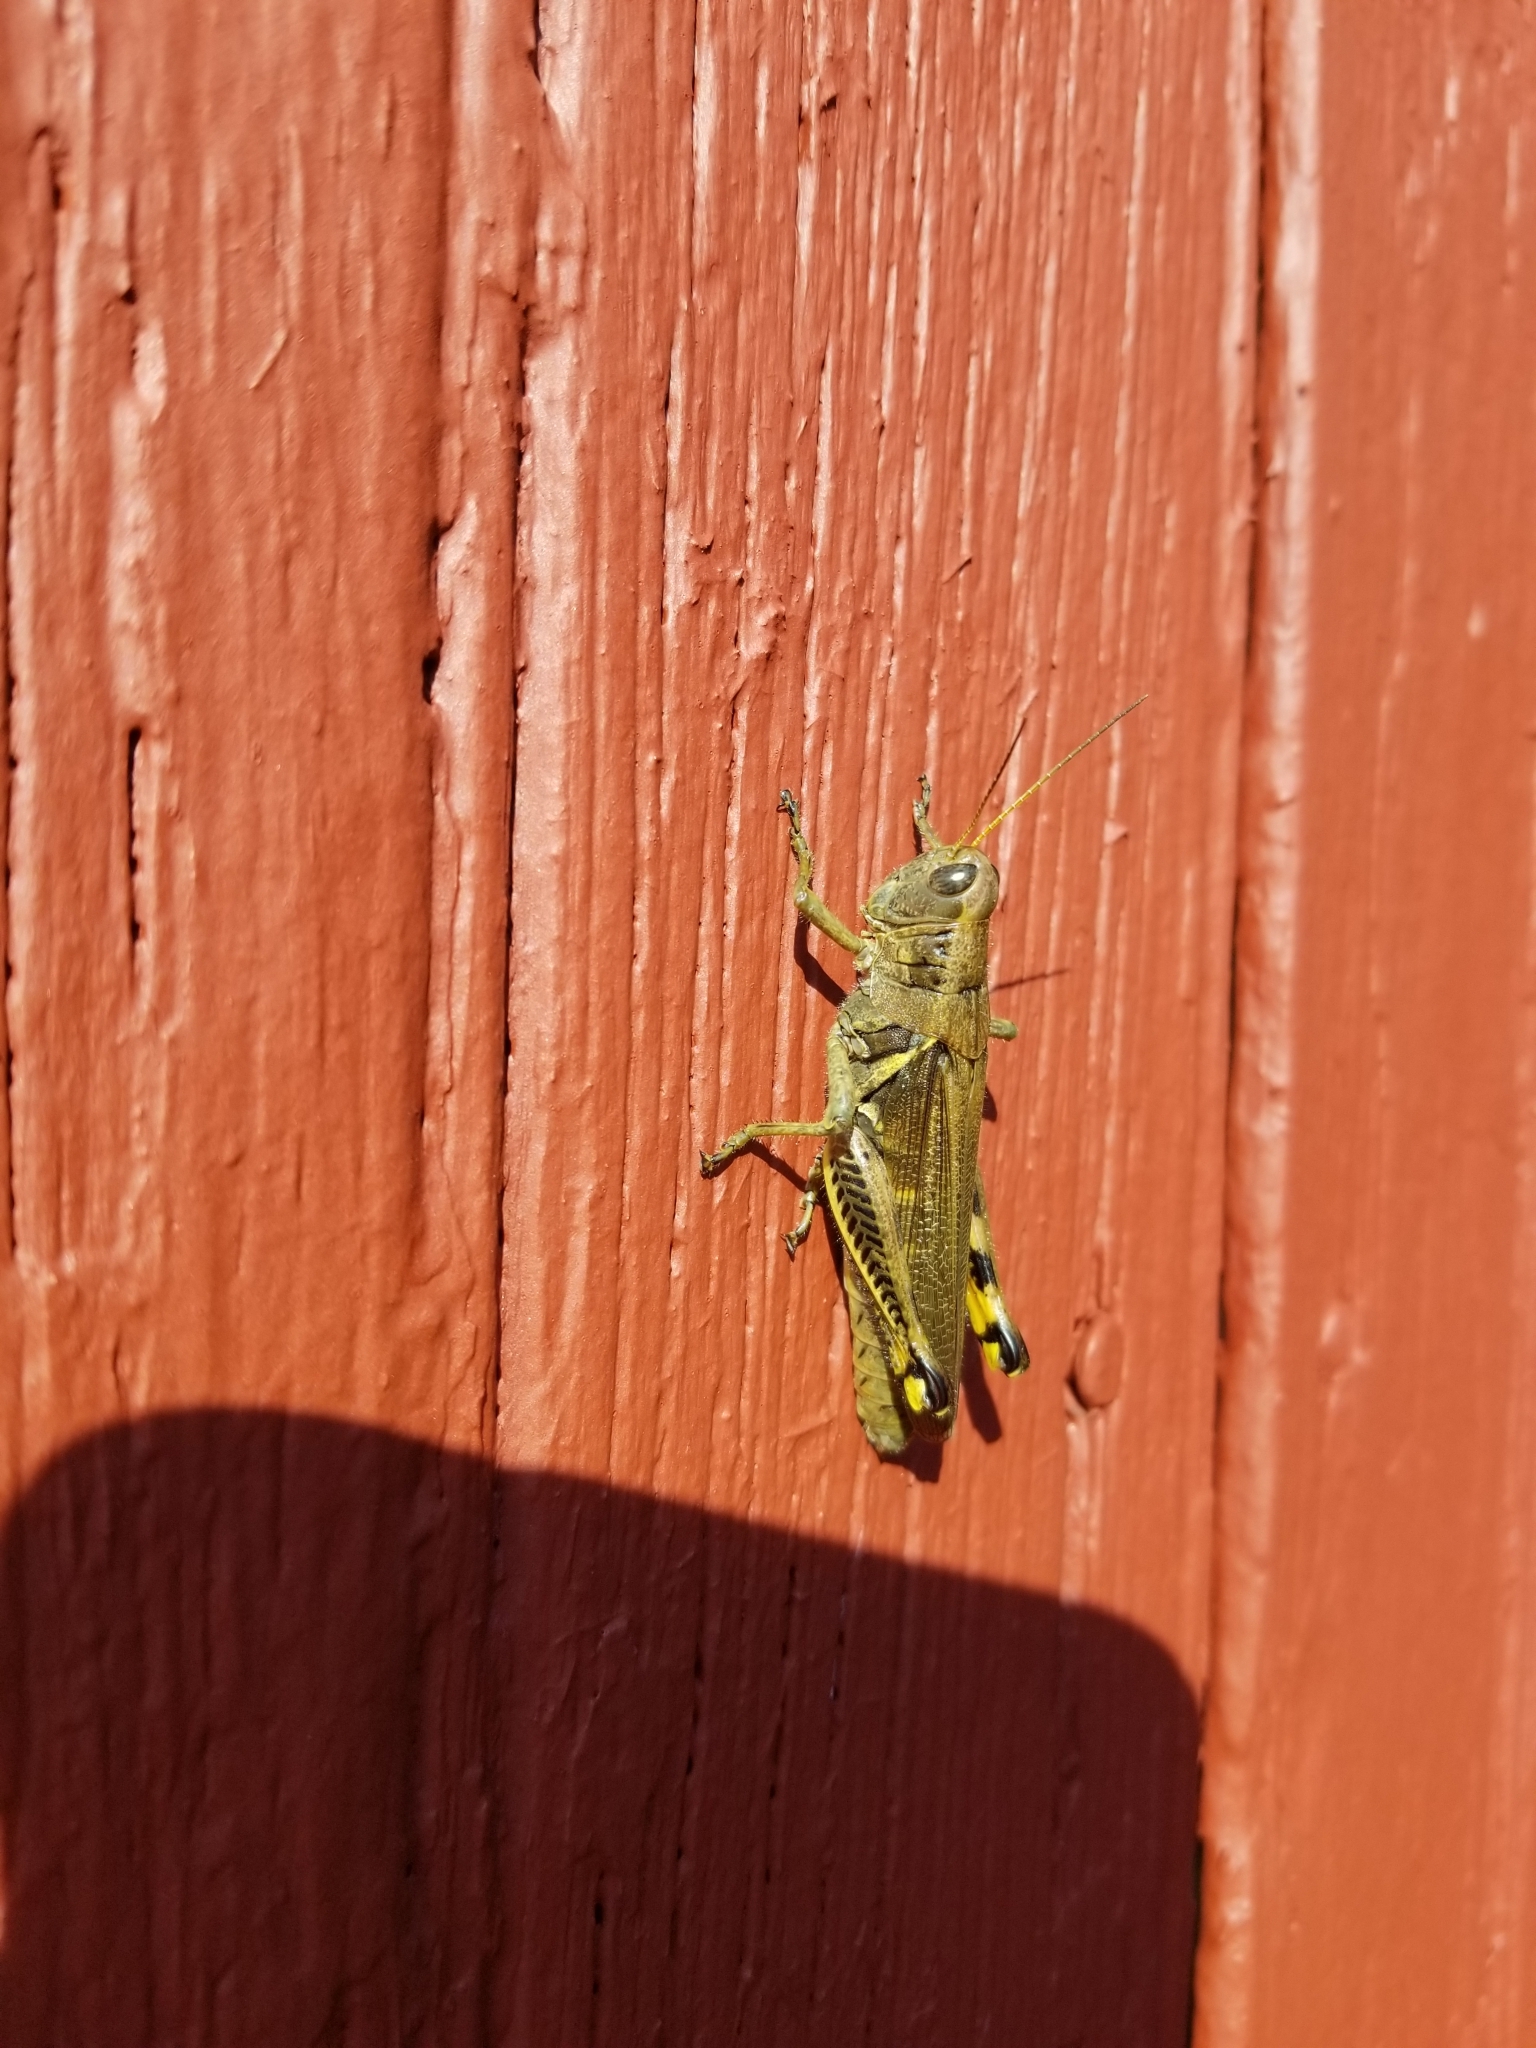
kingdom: Animalia
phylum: Arthropoda
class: Insecta
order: Orthoptera
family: Acrididae
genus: Melanoplus
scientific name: Melanoplus differentialis
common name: Differential grasshopper
